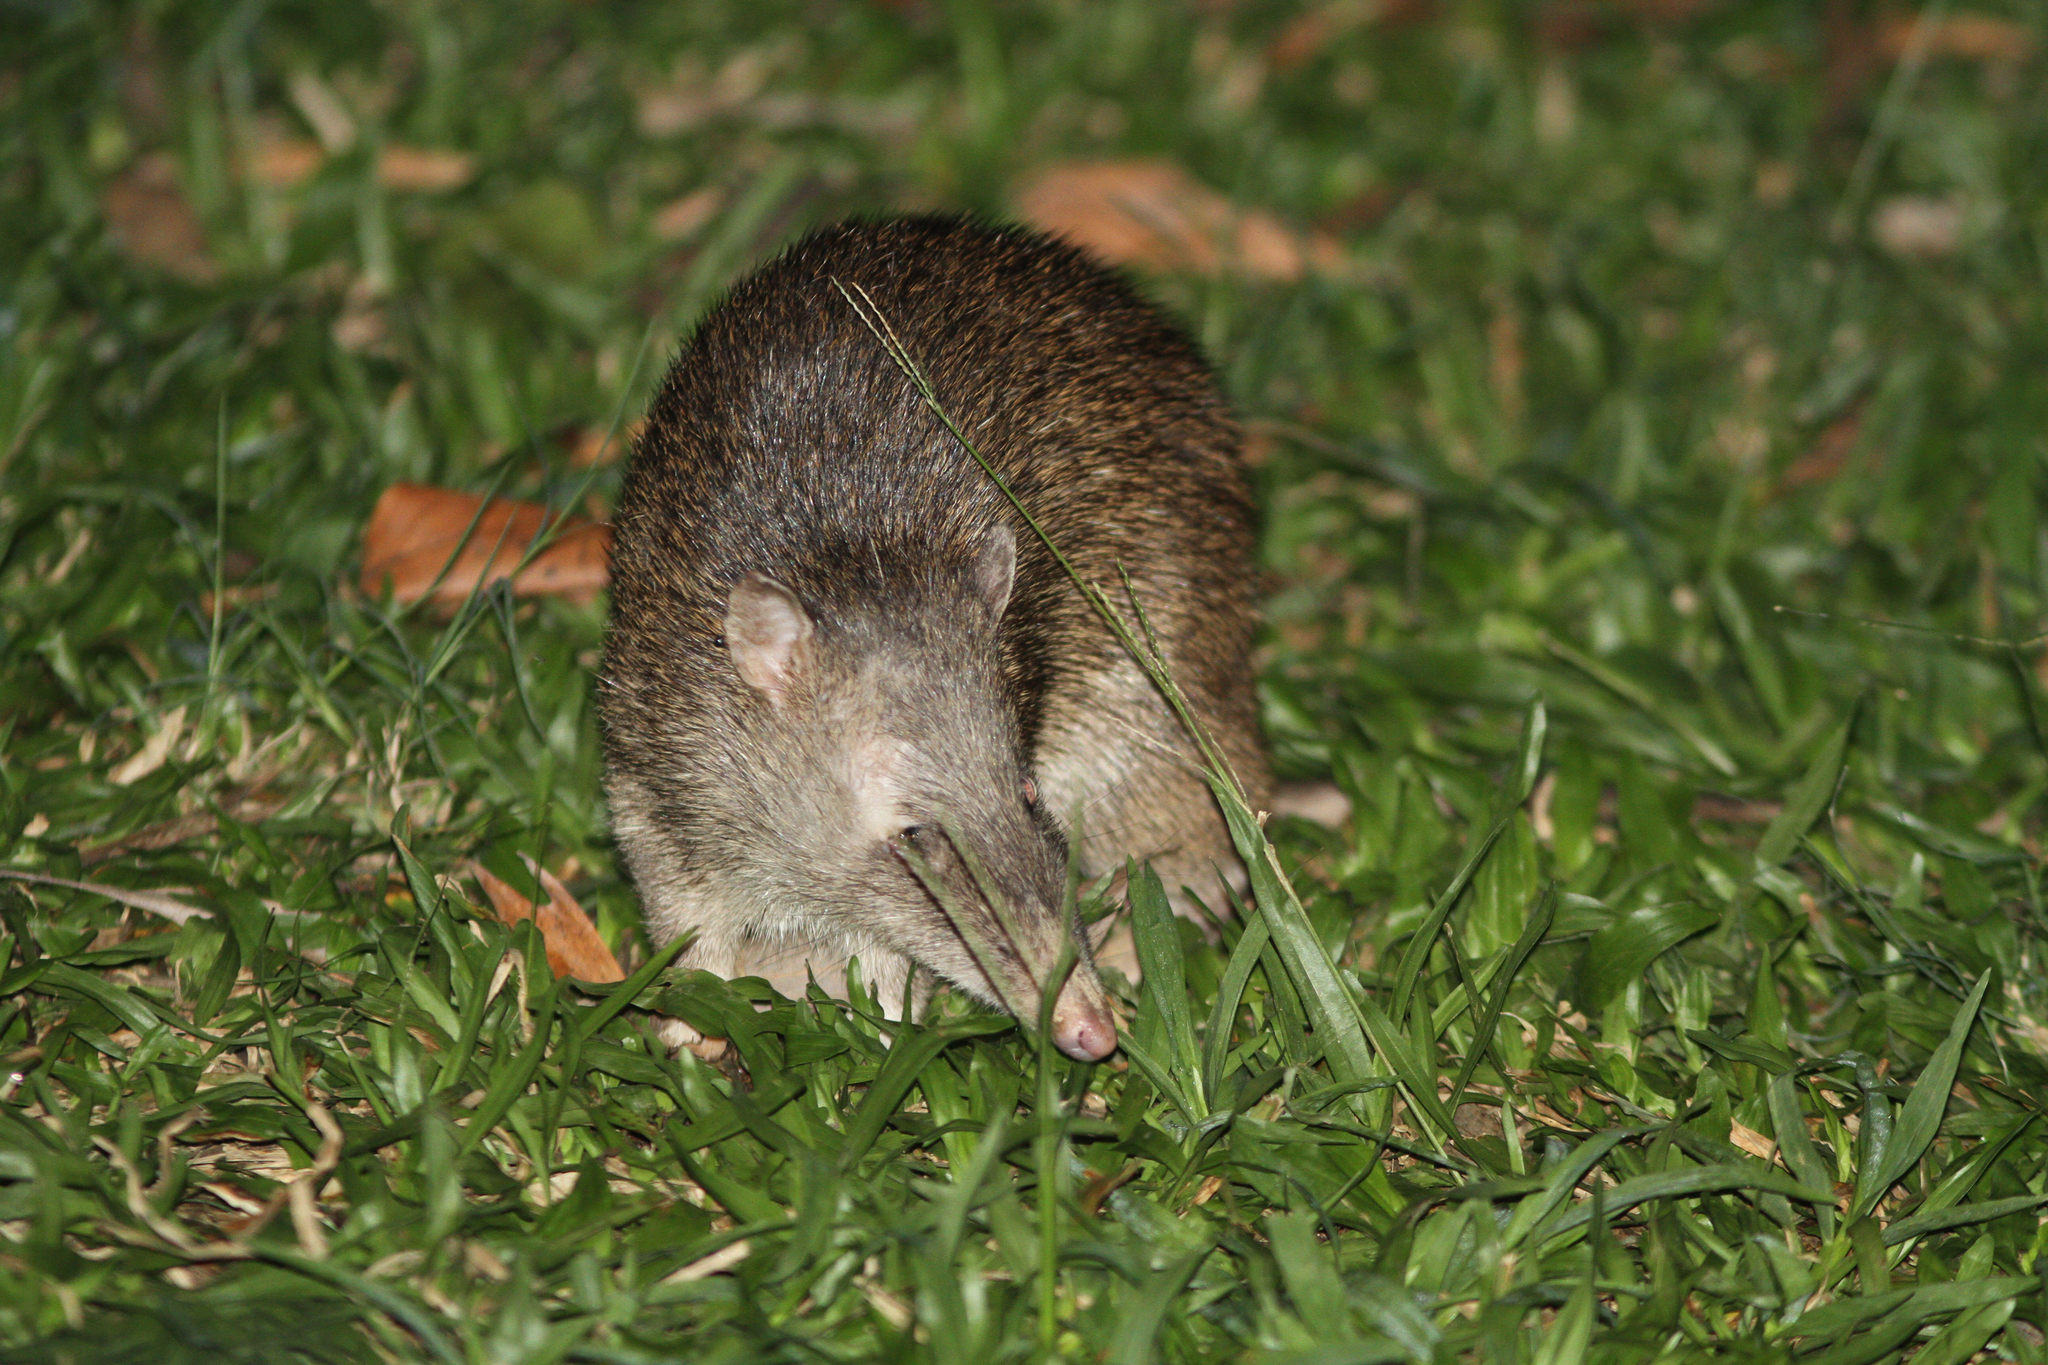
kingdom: Animalia
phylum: Chordata
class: Mammalia
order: Peramelemorphia
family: Peramelidae
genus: Isoodon
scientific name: Isoodon macrourus
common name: Northern brown bandicoot
